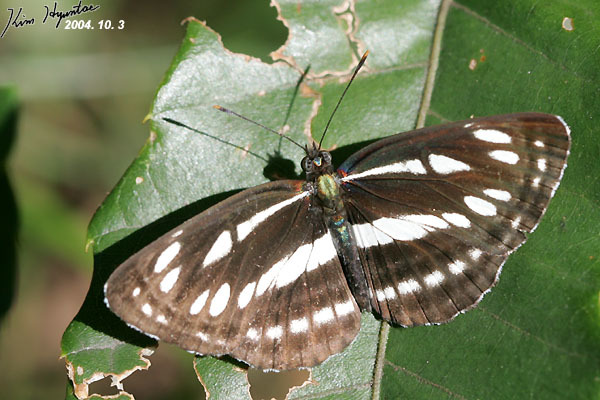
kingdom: Animalia
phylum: Arthropoda
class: Insecta
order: Lepidoptera
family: Nymphalidae
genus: Neptis
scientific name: Neptis sappho
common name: Common glider
